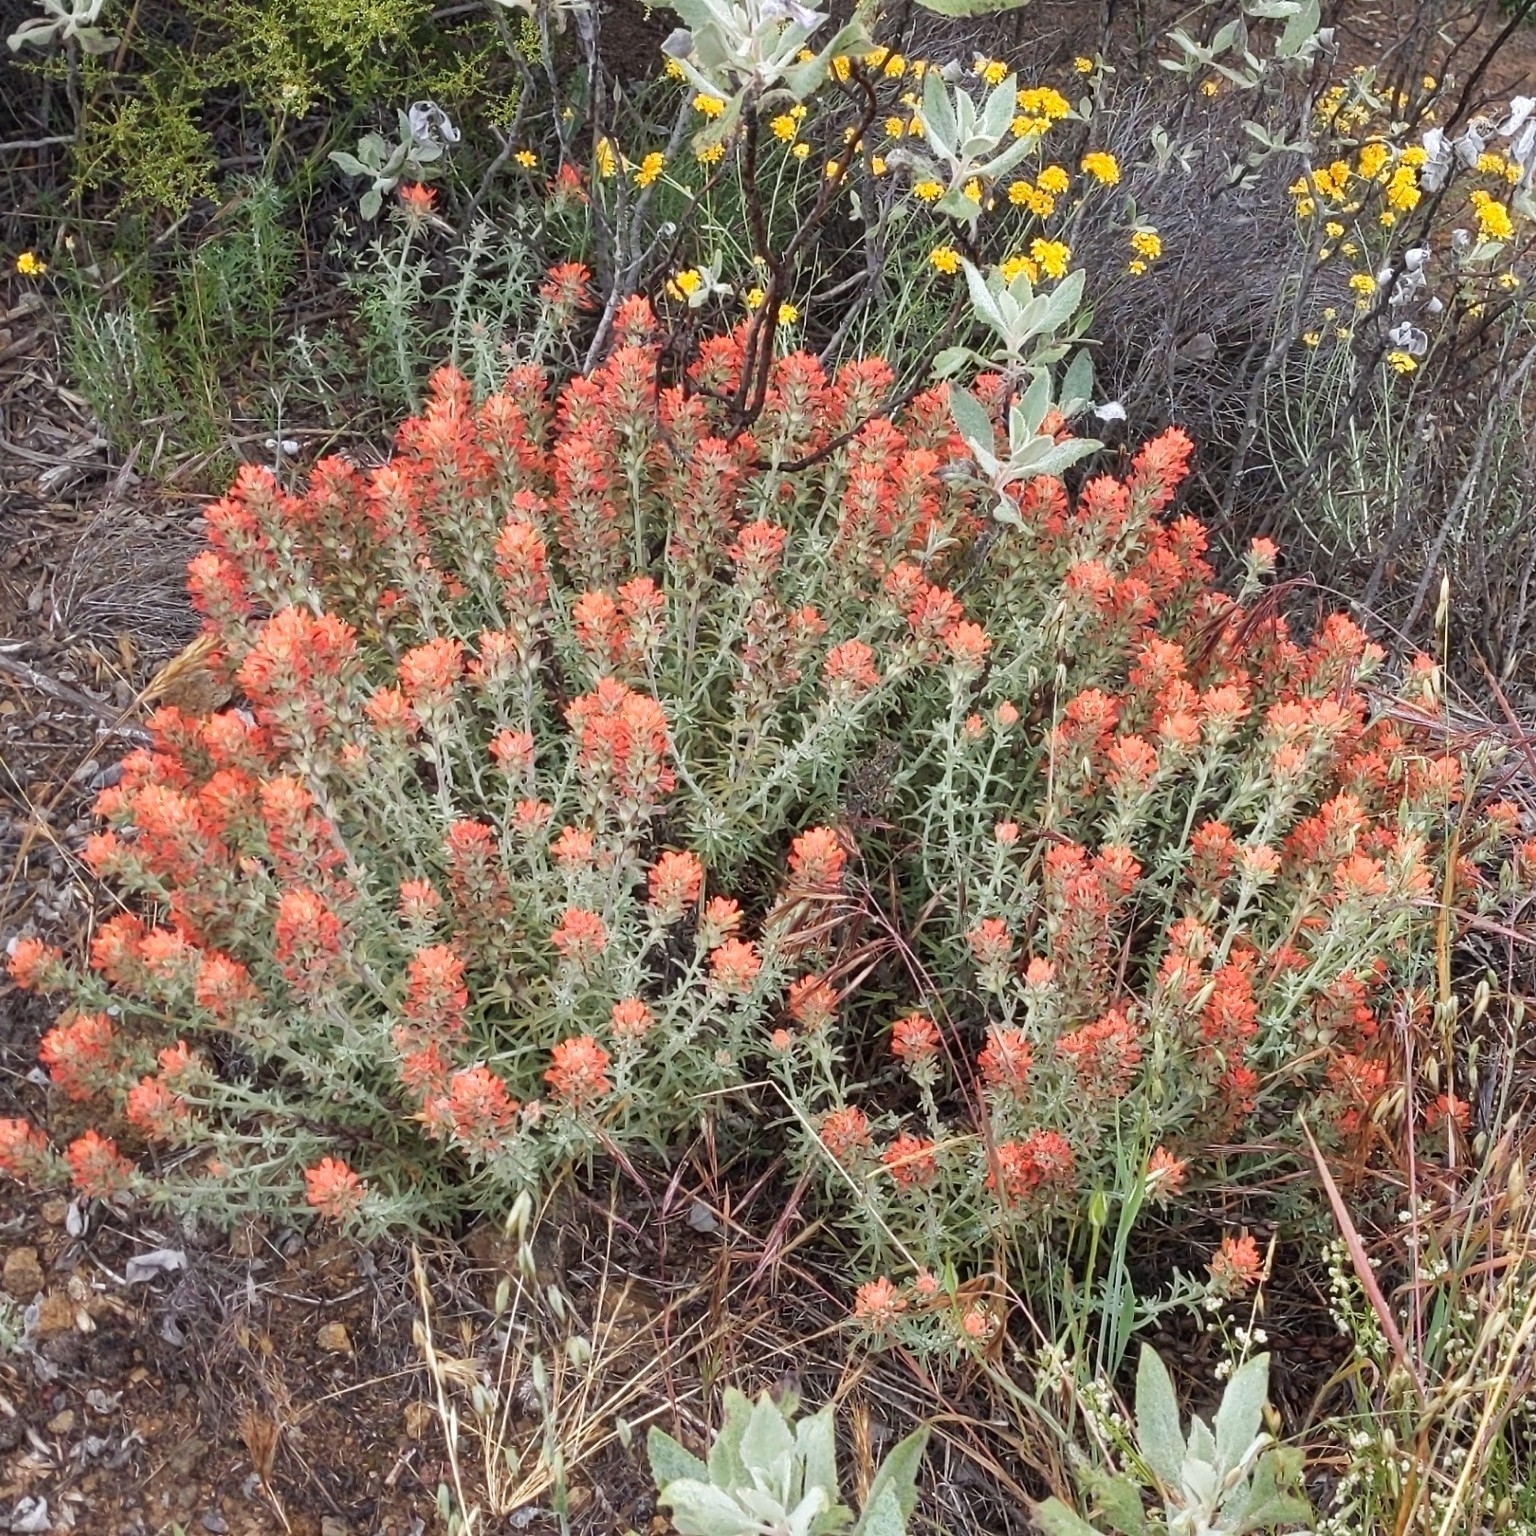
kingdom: Plantae
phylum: Tracheophyta
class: Magnoliopsida
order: Lamiales
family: Orobanchaceae
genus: Castilleja
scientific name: Castilleja foliolosa
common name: Woolly indian paintbrush
